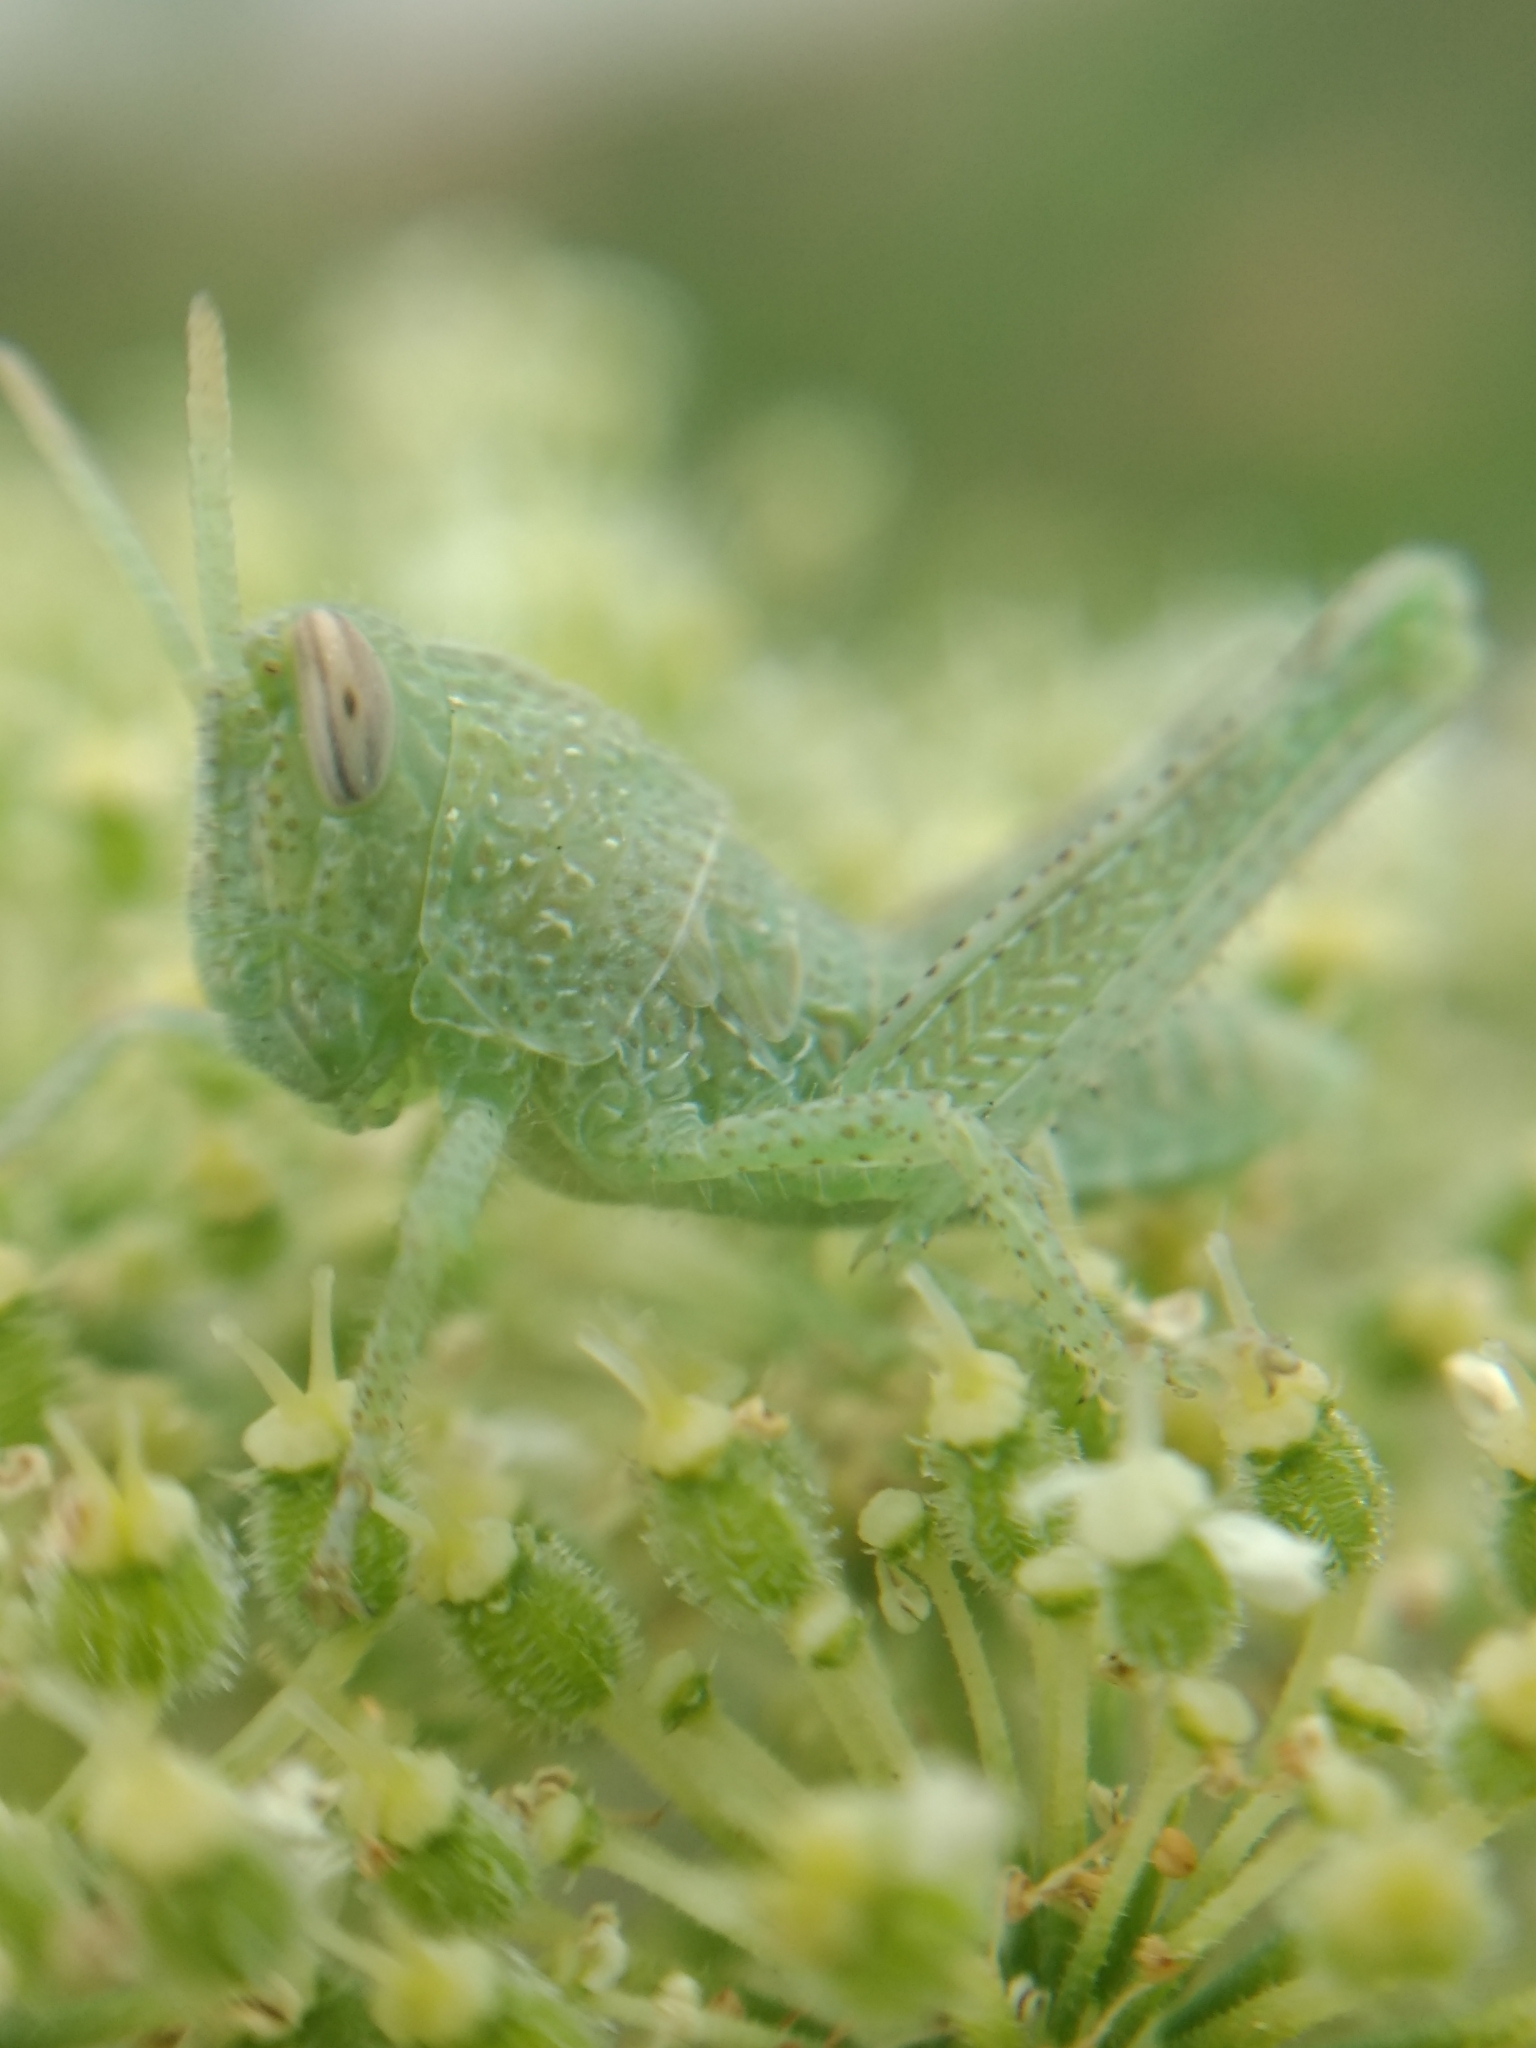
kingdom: Animalia
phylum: Arthropoda
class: Insecta
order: Orthoptera
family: Acrididae
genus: Schistocerca
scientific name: Schistocerca nitens
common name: Vagrant grasshopper
